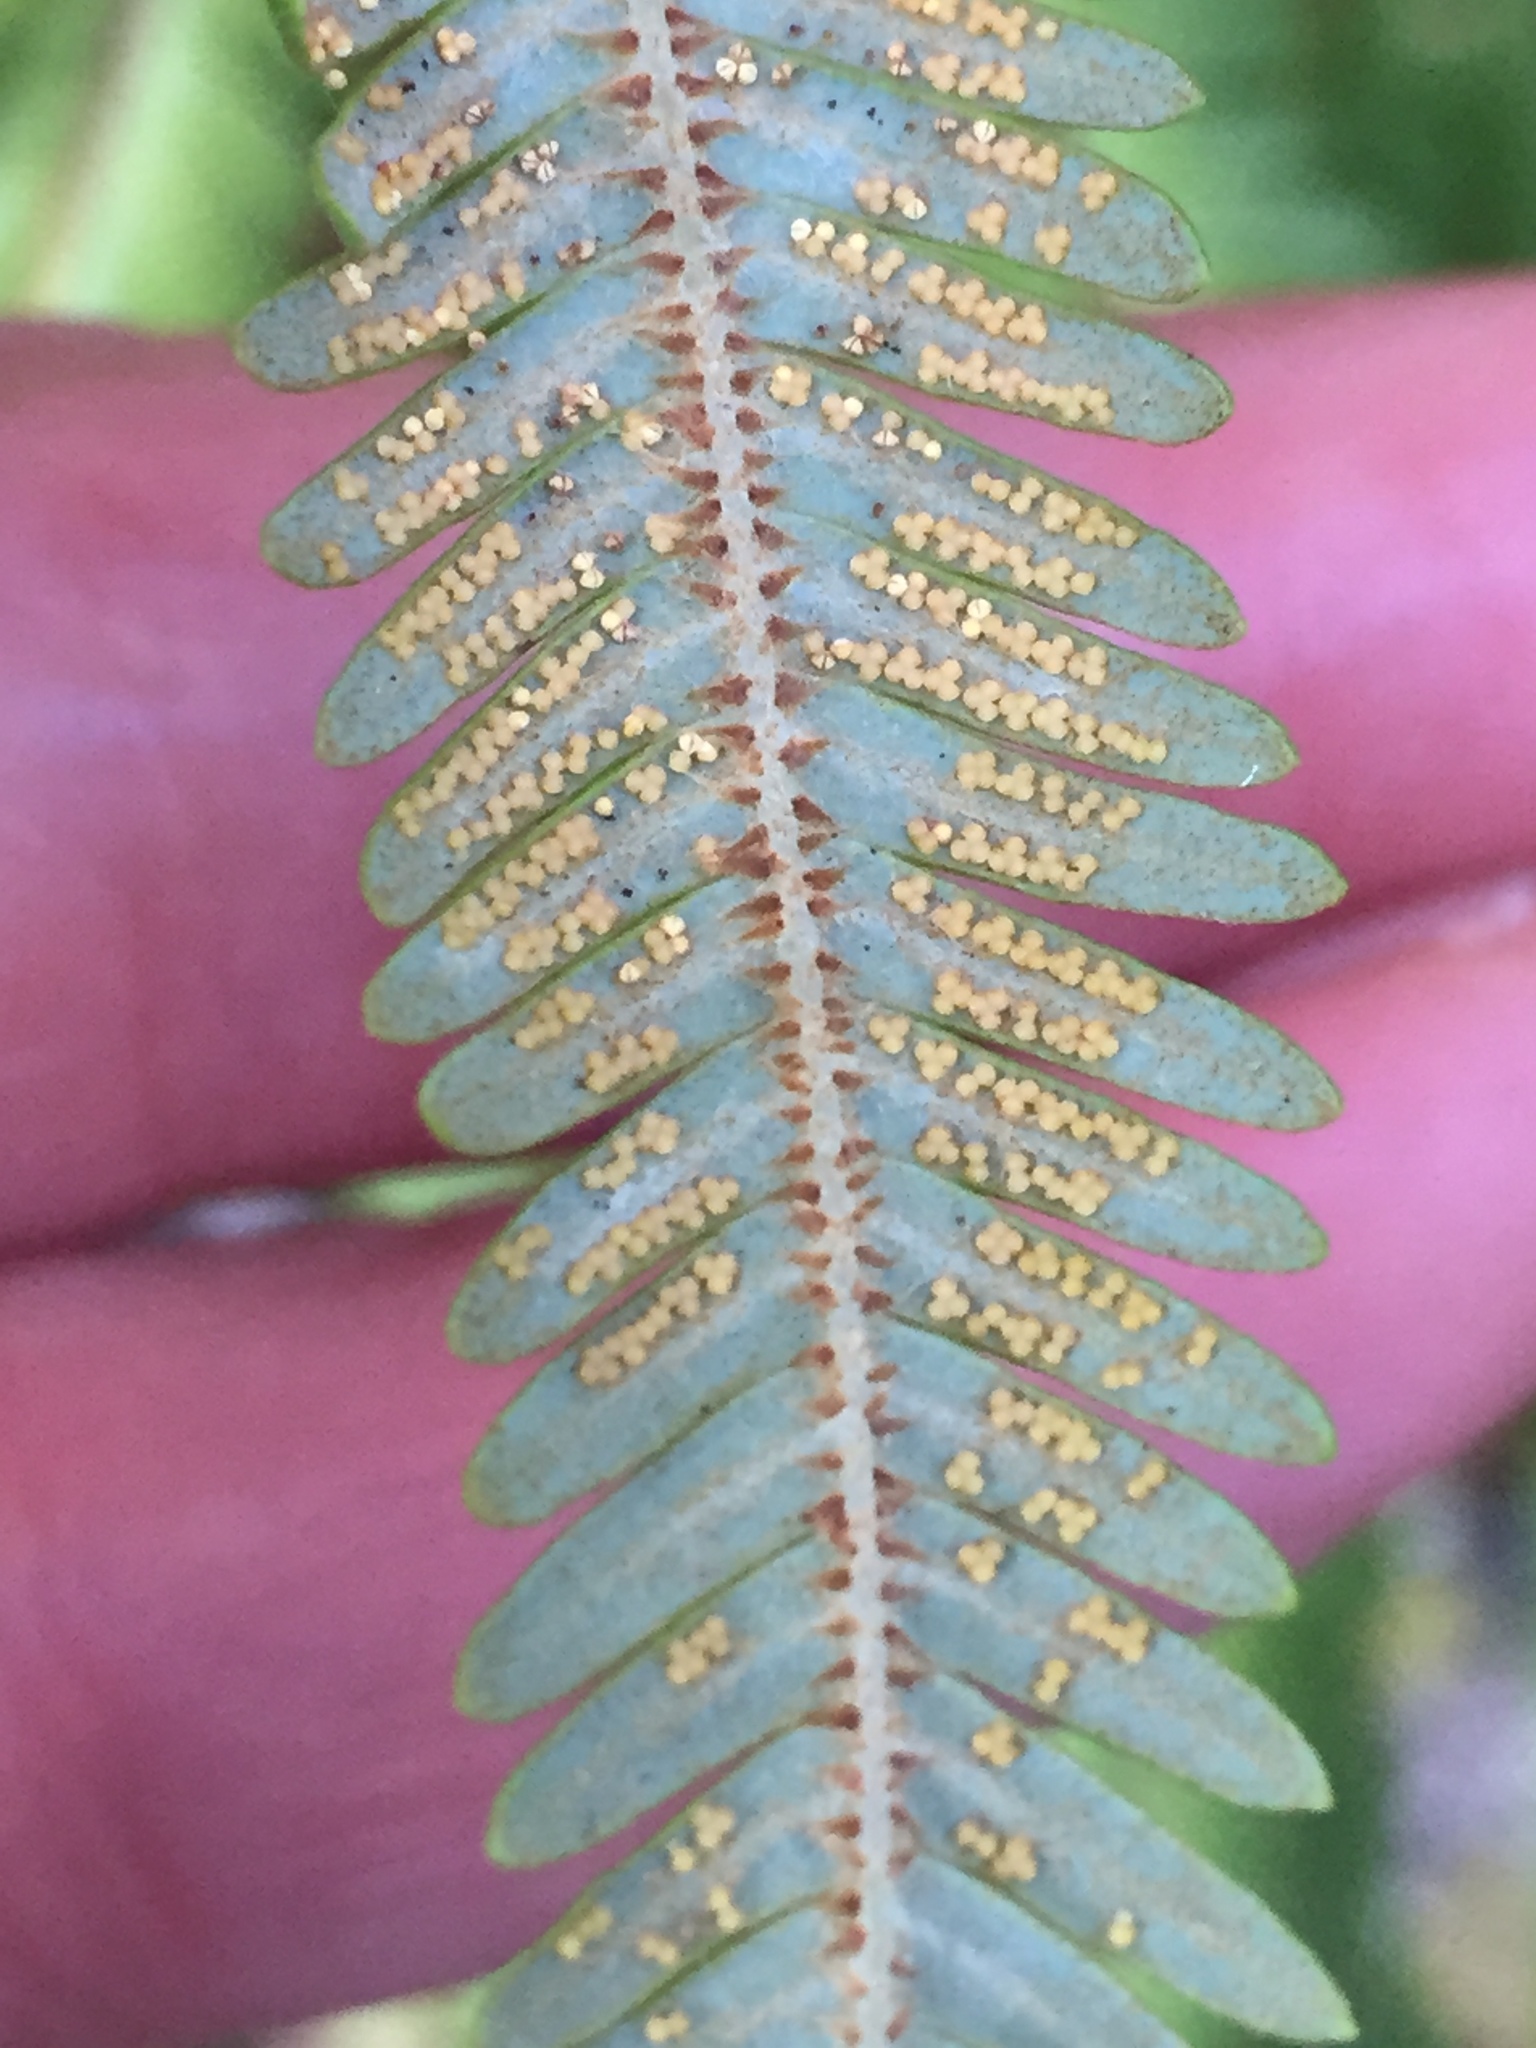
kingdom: Plantae
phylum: Tracheophyta
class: Polypodiopsida
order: Gleicheniales
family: Gleicheniaceae
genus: Sticherus
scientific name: Sticherus cunninghamii
